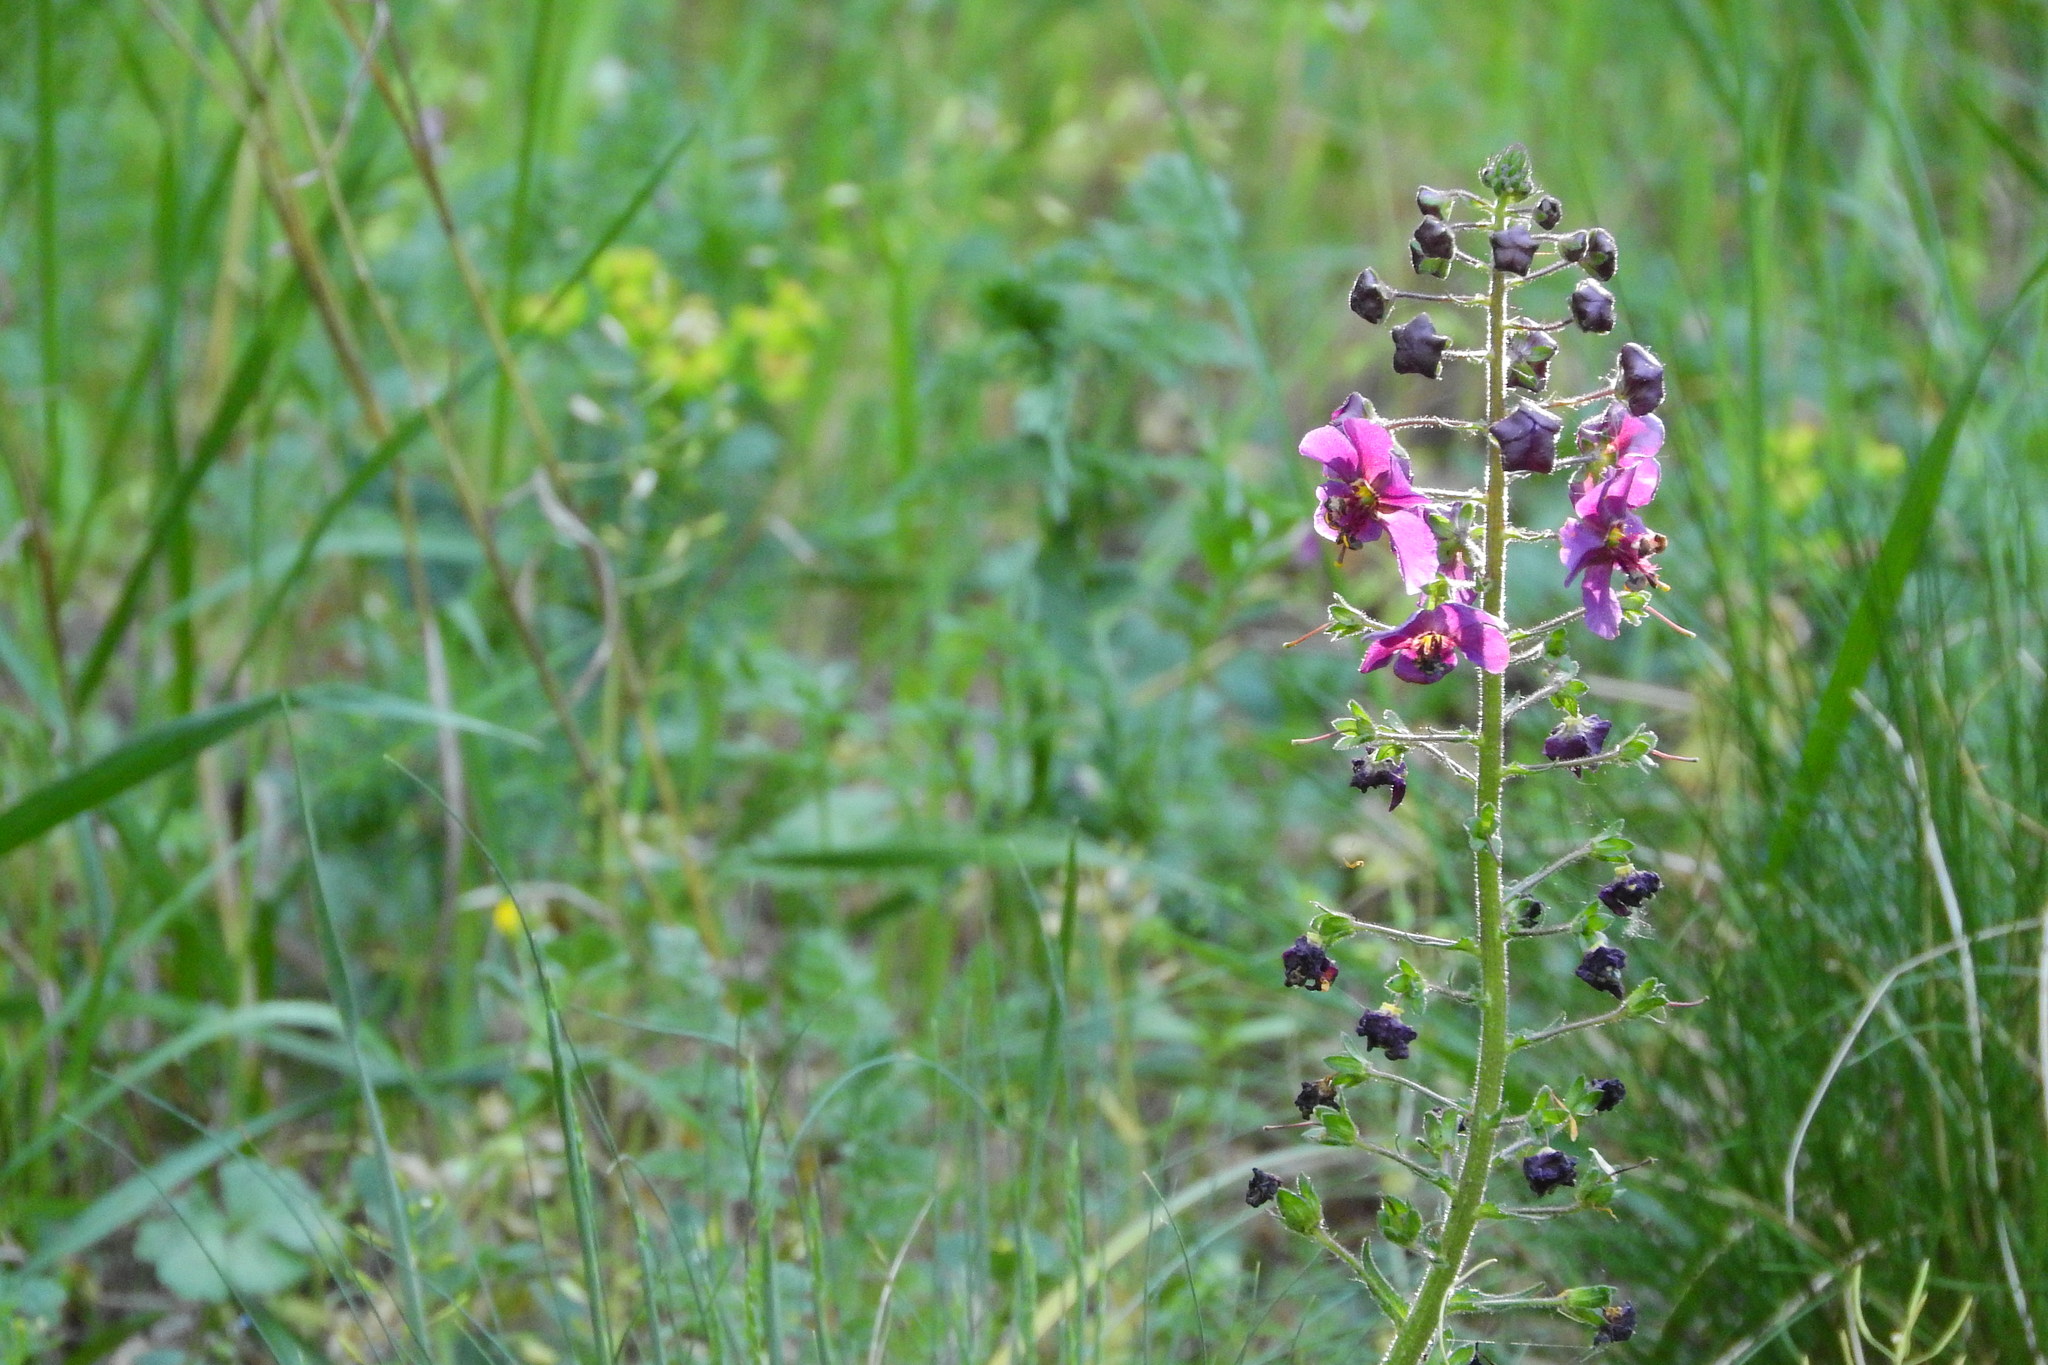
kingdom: Plantae
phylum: Tracheophyta
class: Magnoliopsida
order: Lamiales
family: Scrophulariaceae
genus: Verbascum
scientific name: Verbascum phoeniceum
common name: Purple mullein
